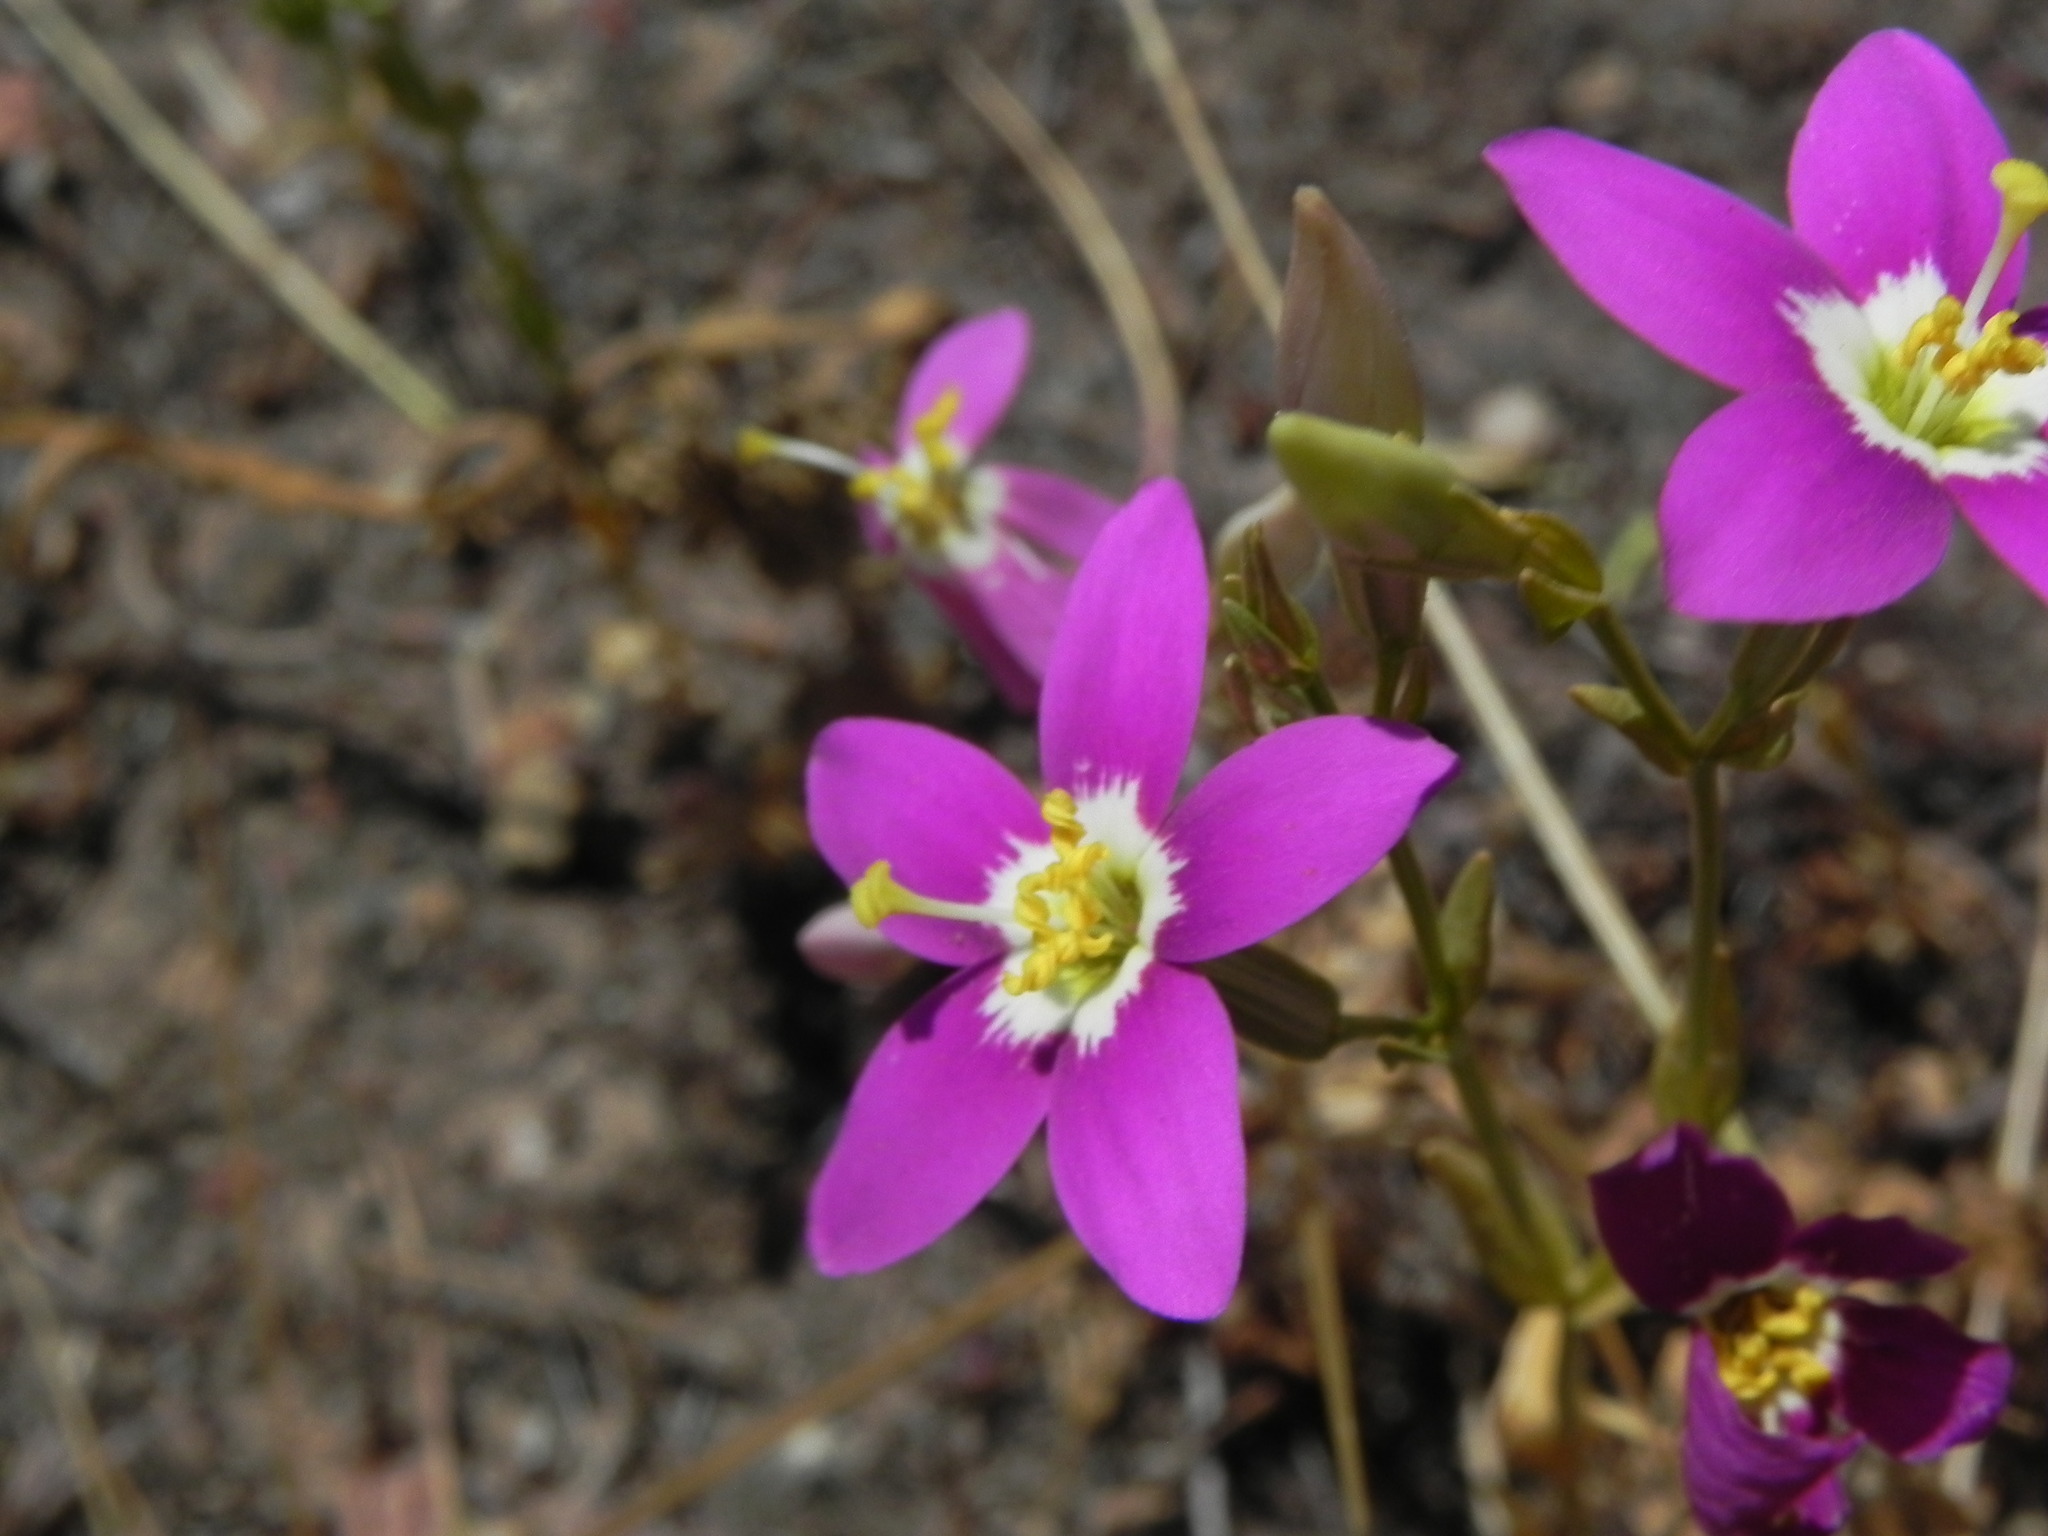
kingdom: Plantae
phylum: Tracheophyta
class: Magnoliopsida
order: Gentianales
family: Gentianaceae
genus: Zeltnera
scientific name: Zeltnera venusta
